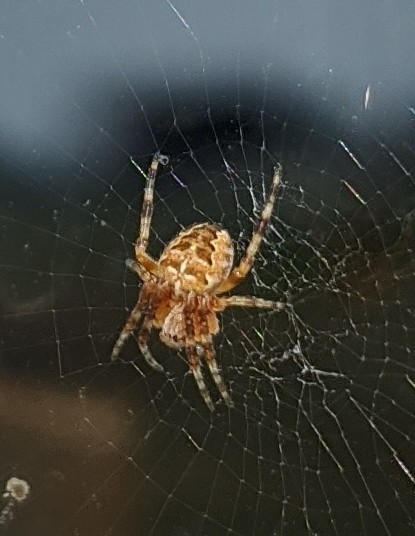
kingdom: Animalia
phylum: Arthropoda
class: Arachnida
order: Araneae
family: Araneidae
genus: Araneus
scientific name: Araneus diadematus
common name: Cross orbweaver
